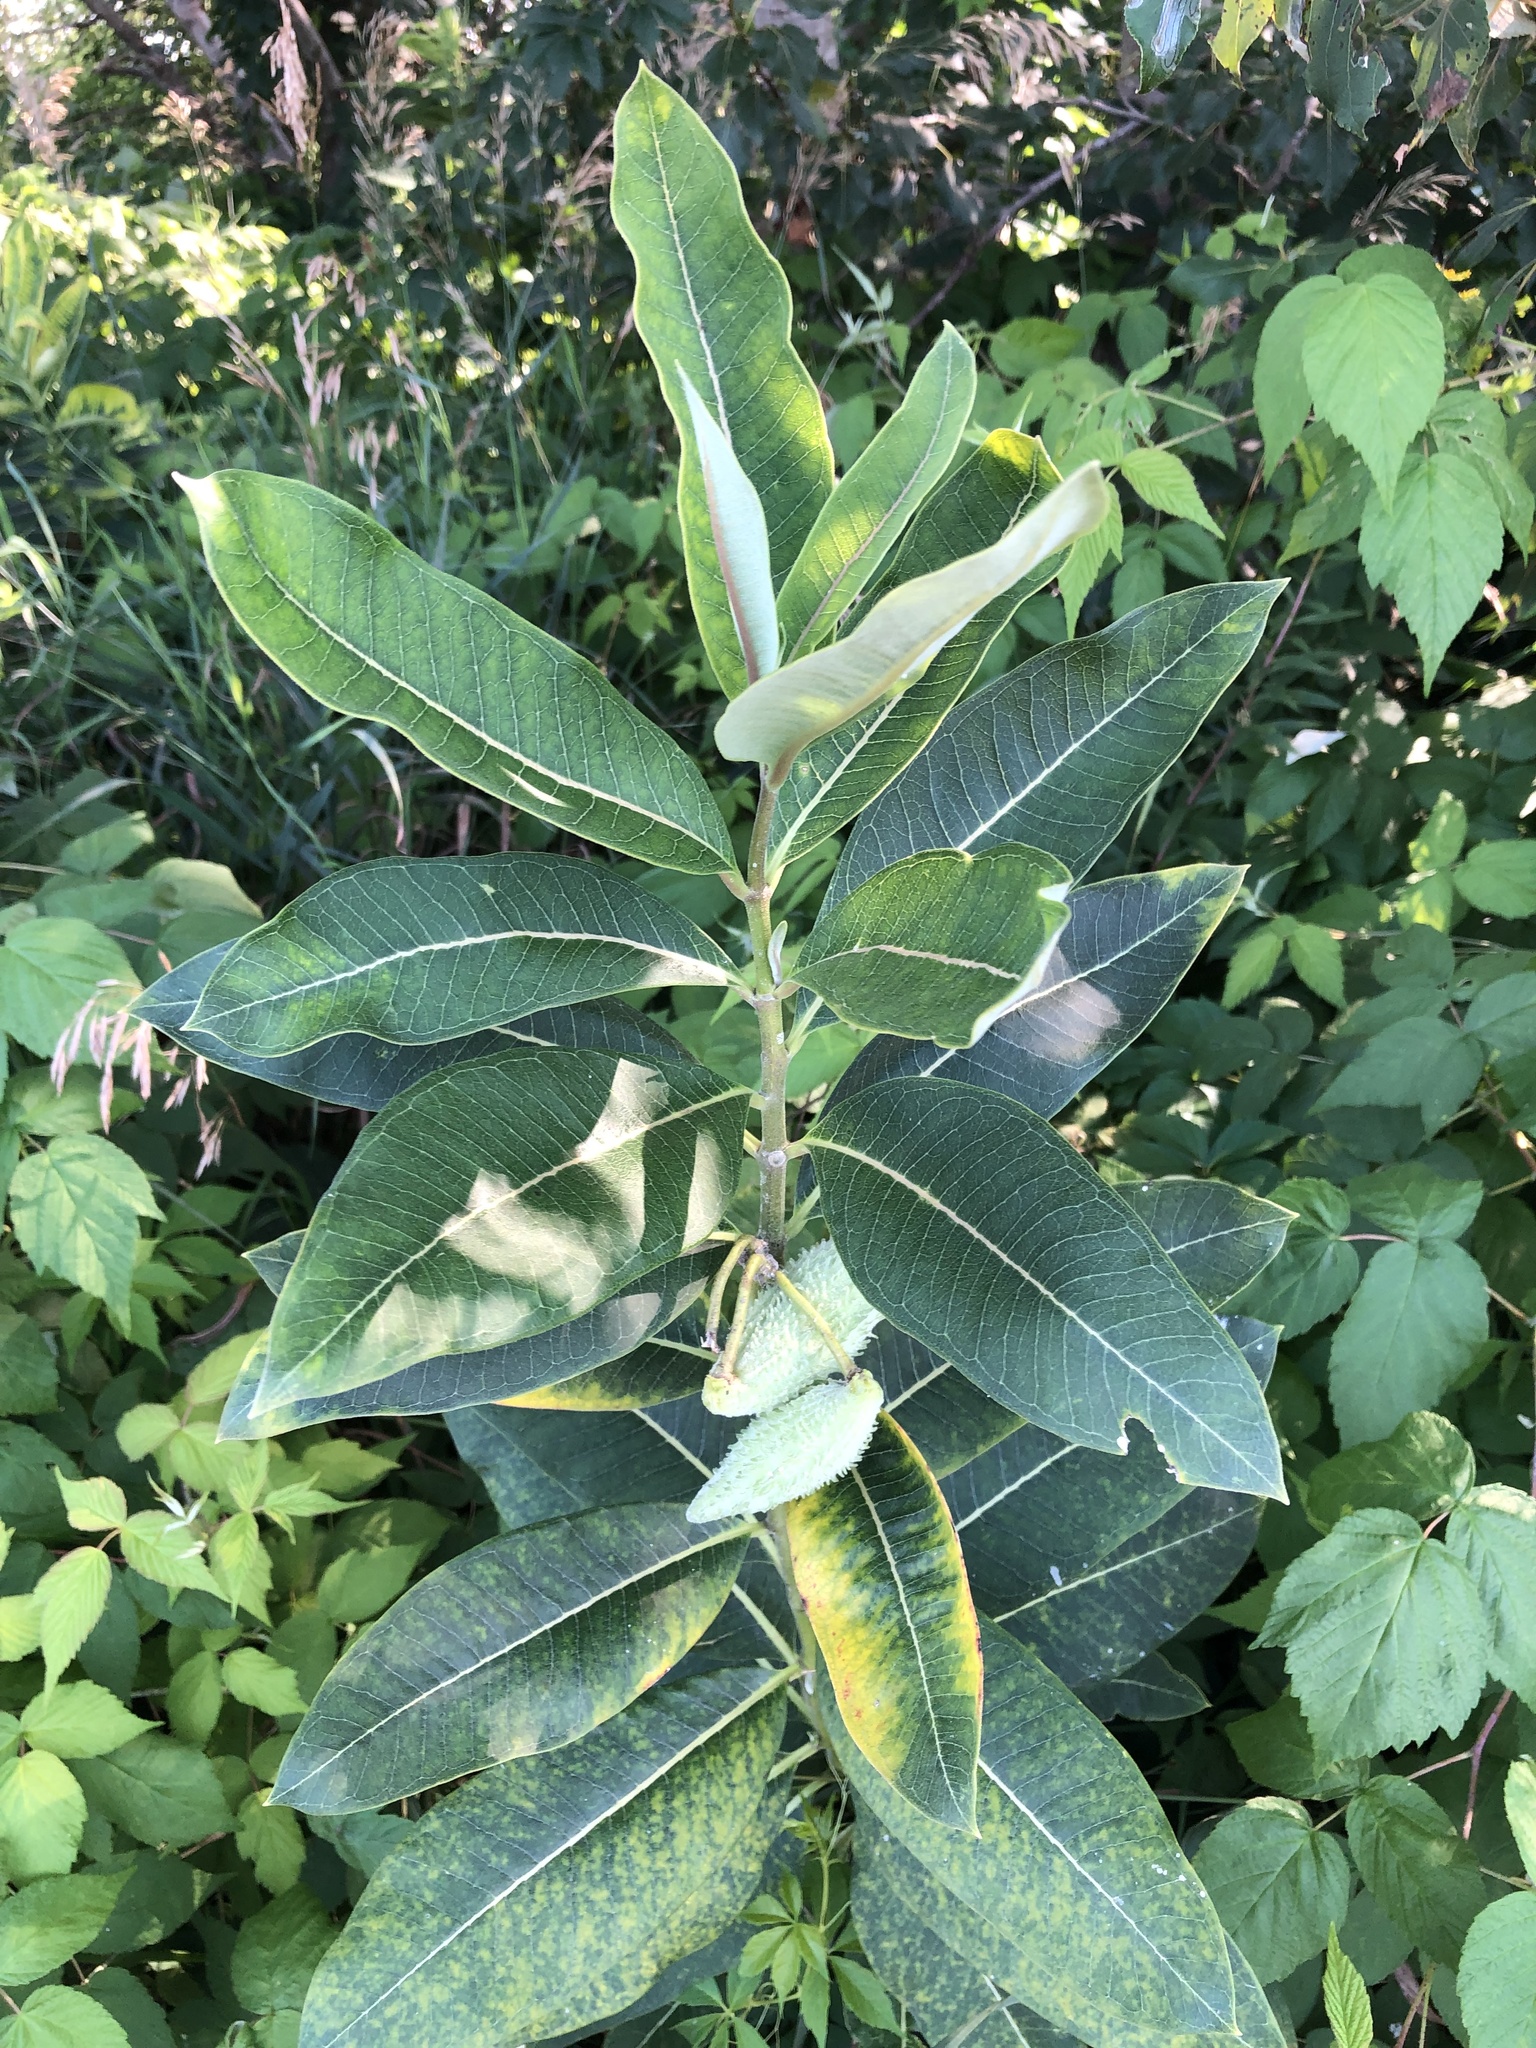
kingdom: Plantae
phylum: Tracheophyta
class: Magnoliopsida
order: Gentianales
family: Apocynaceae
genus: Asclepias
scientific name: Asclepias syriaca
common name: Common milkweed
